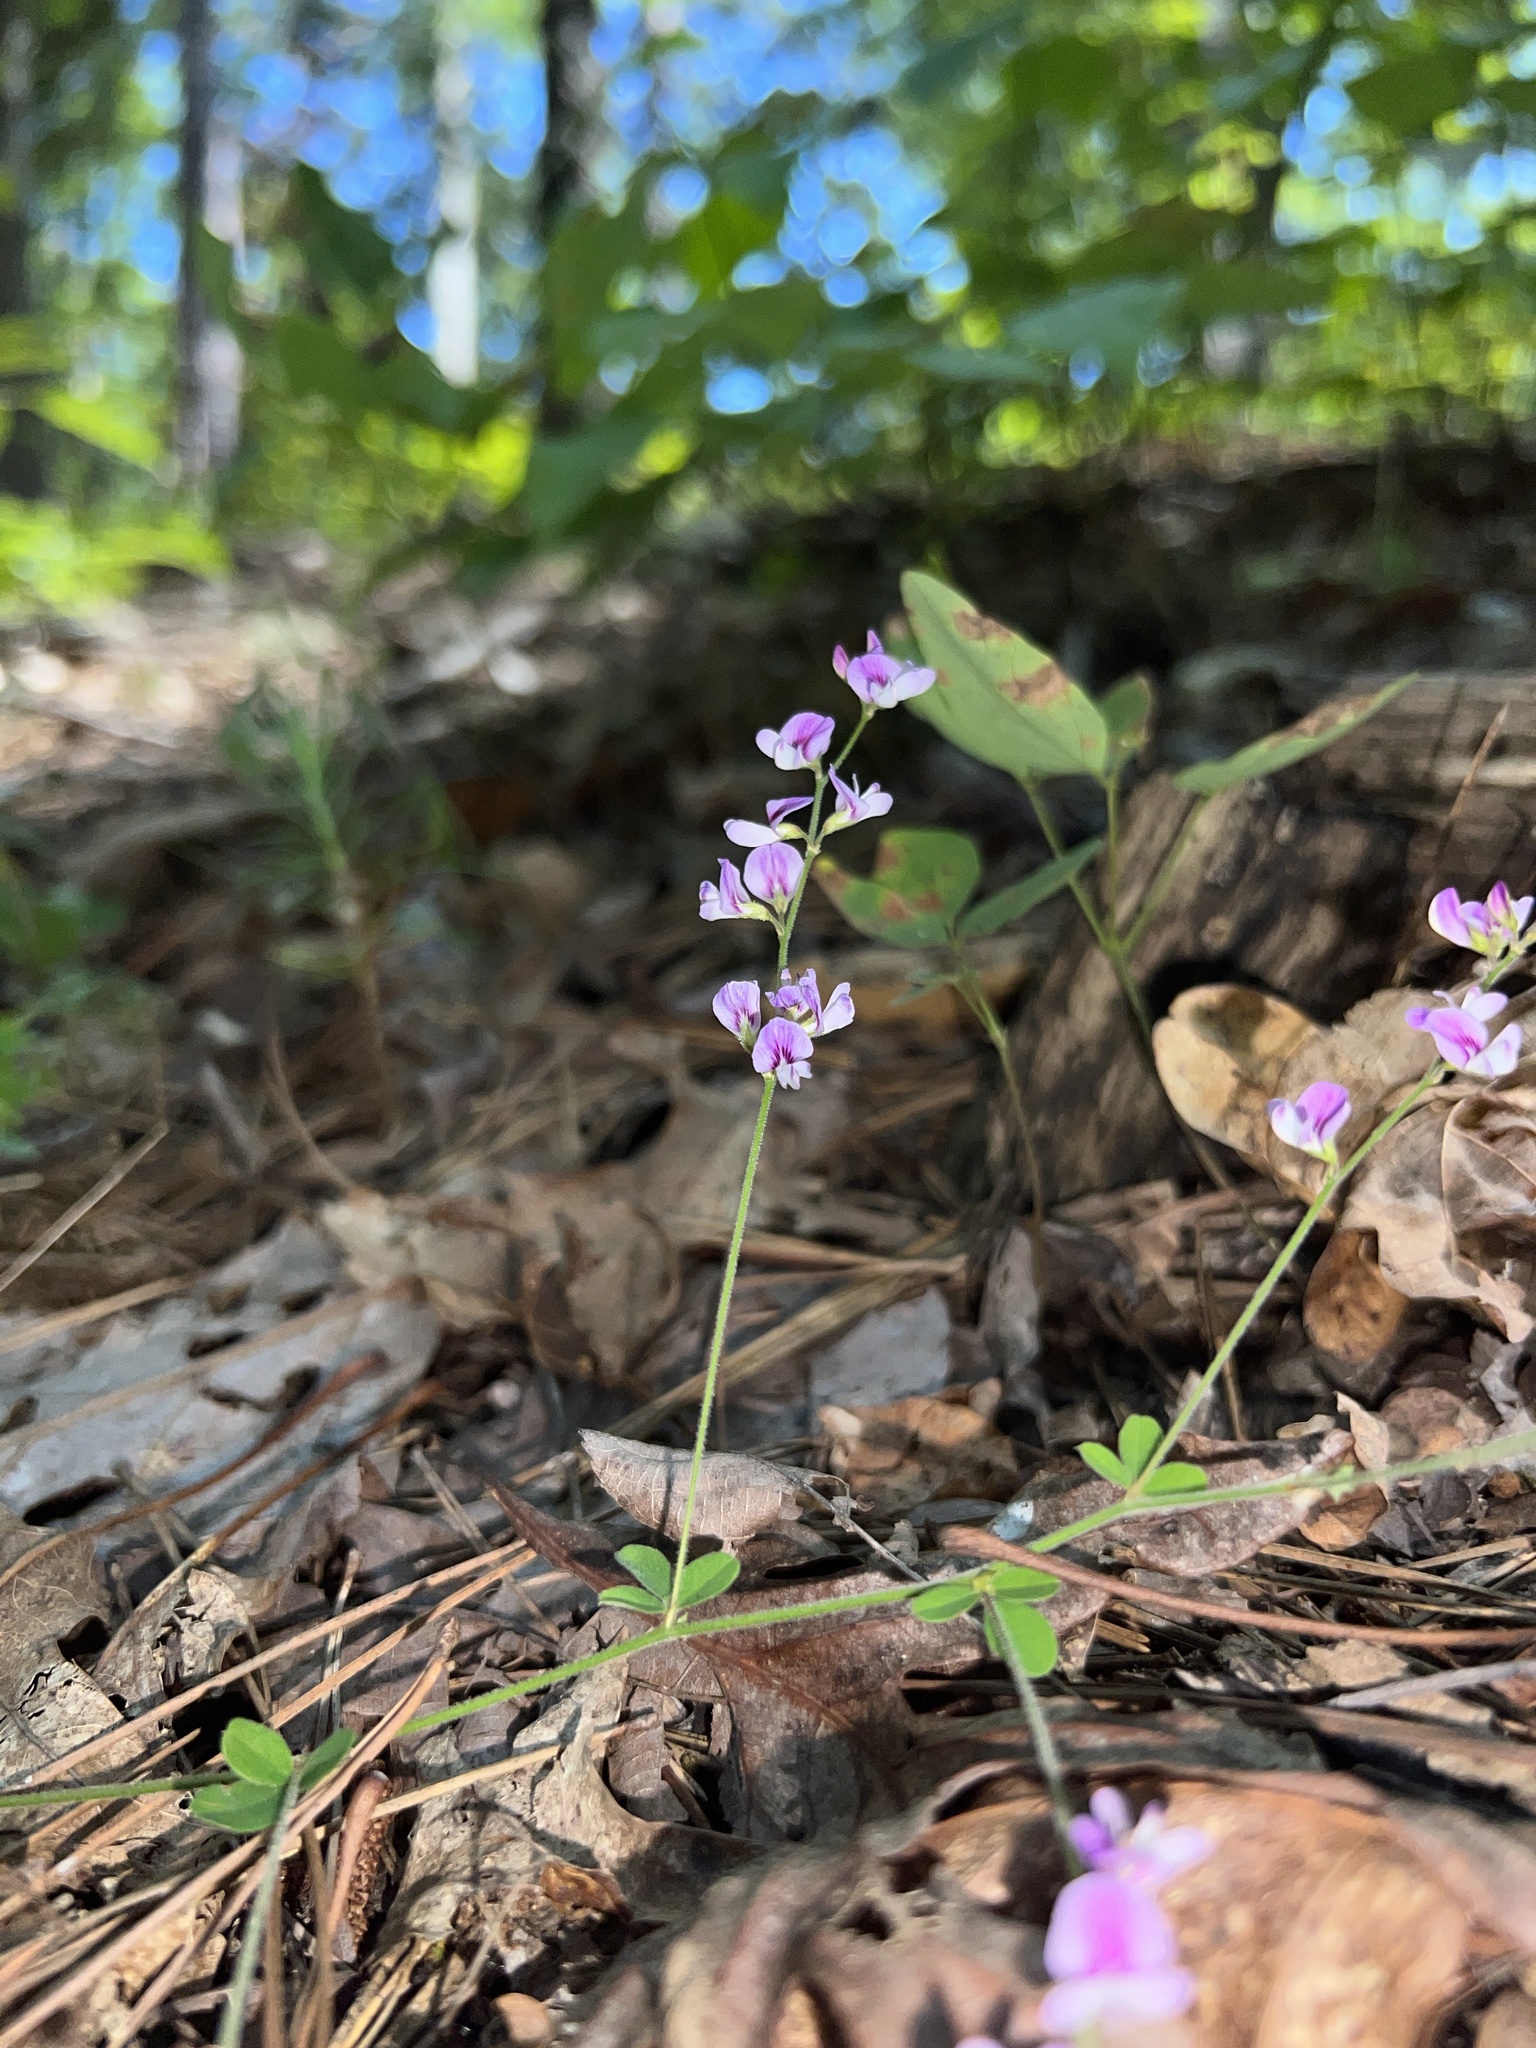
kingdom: Plantae
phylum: Tracheophyta
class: Magnoliopsida
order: Fabales
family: Fabaceae
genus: Lespedeza
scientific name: Lespedeza procumbens
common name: Downy trailing bush-clover
